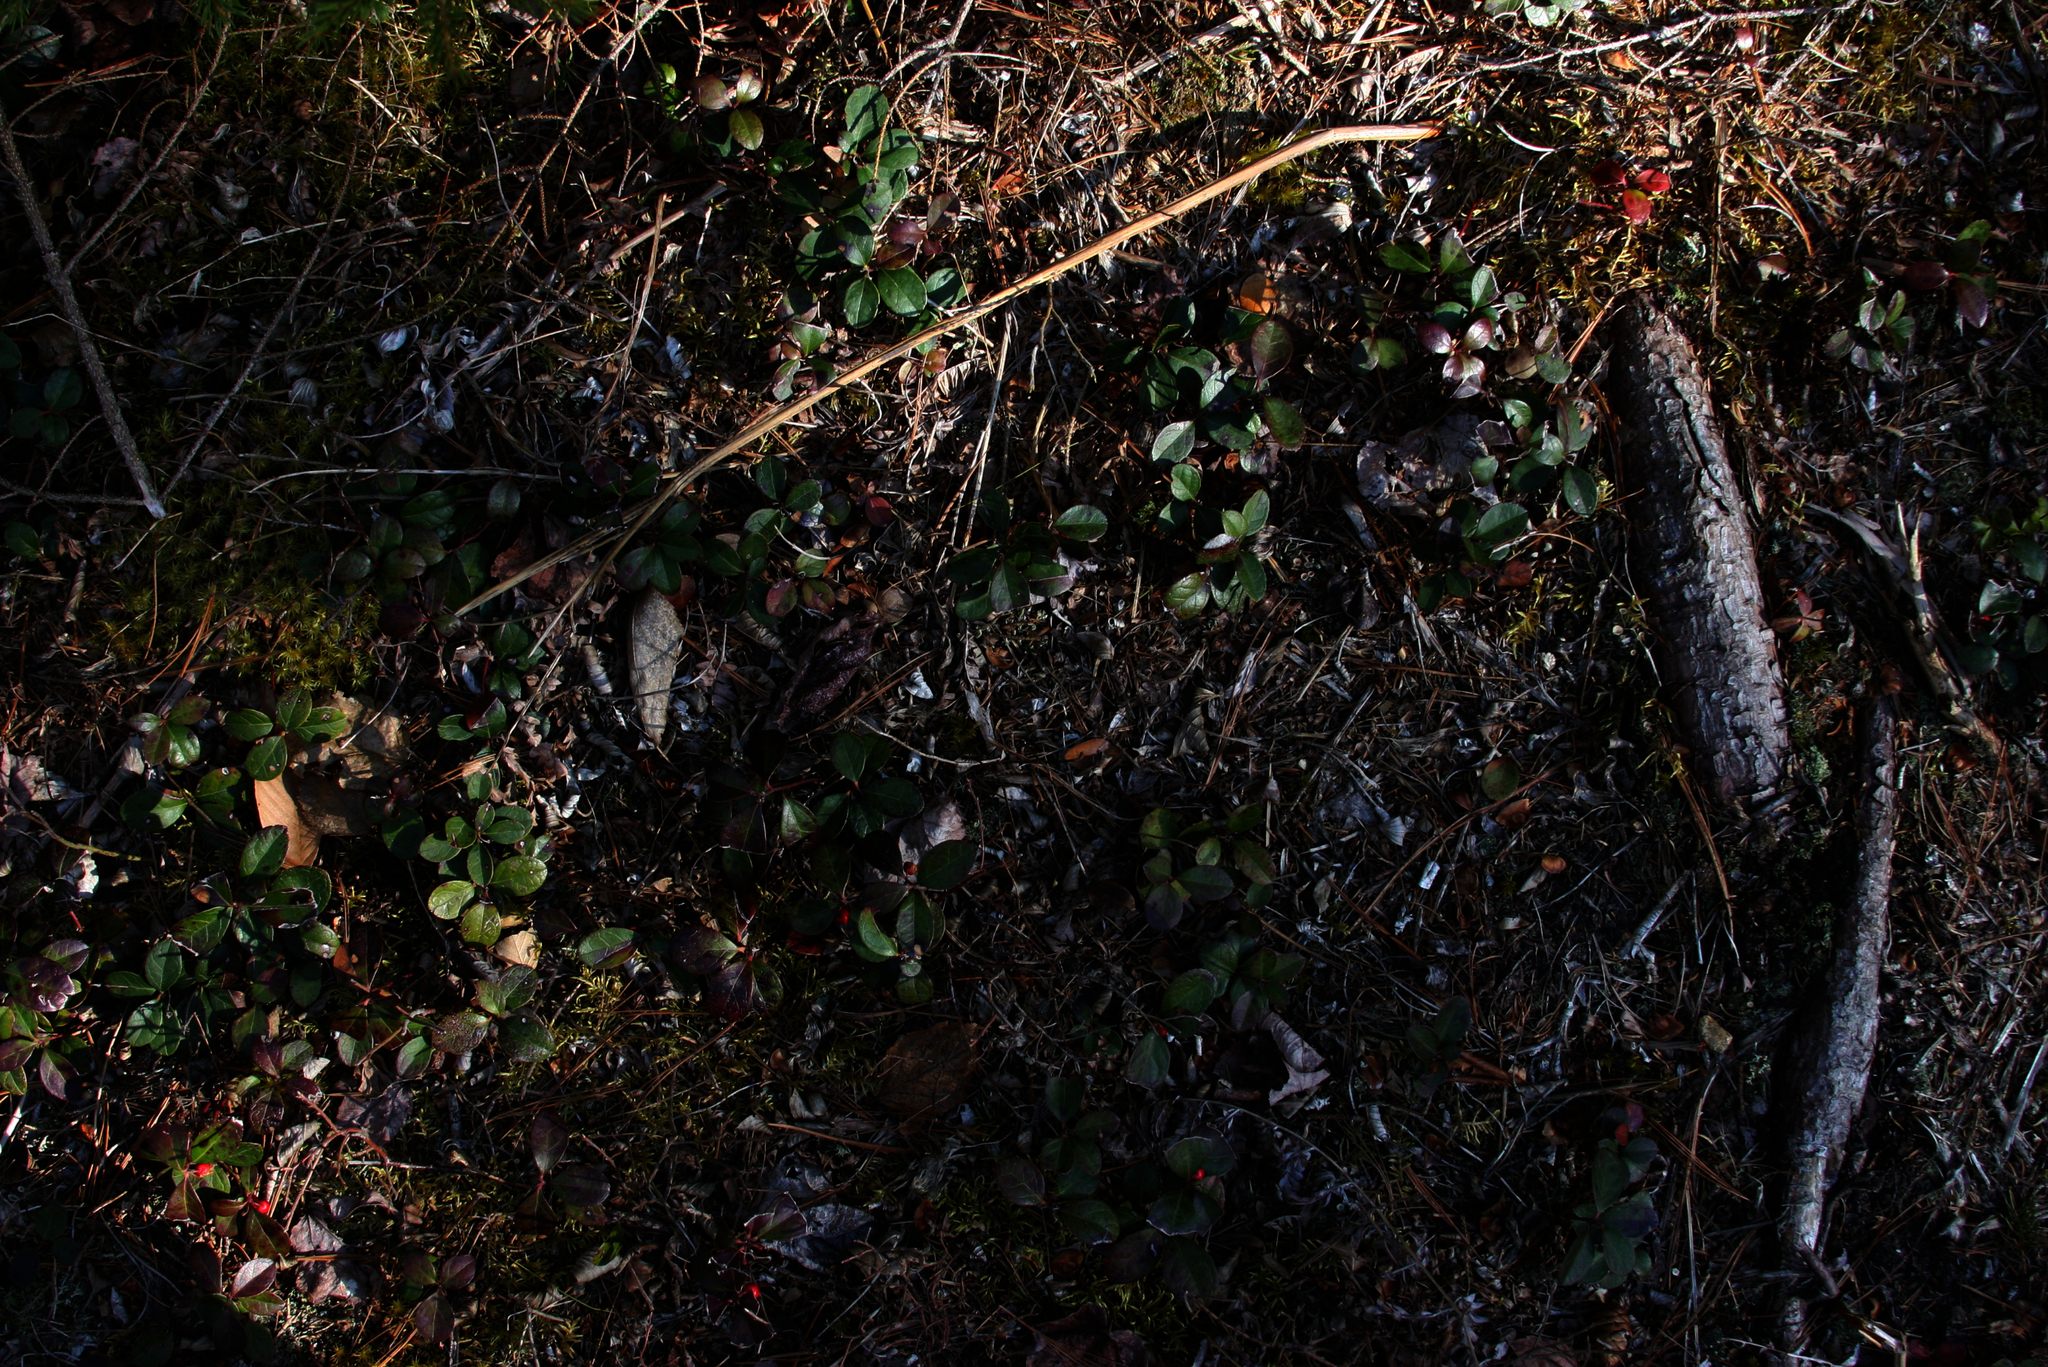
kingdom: Plantae
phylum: Tracheophyta
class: Magnoliopsida
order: Ericales
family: Ericaceae
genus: Gaultheria
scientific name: Gaultheria procumbens
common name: Checkerberry
